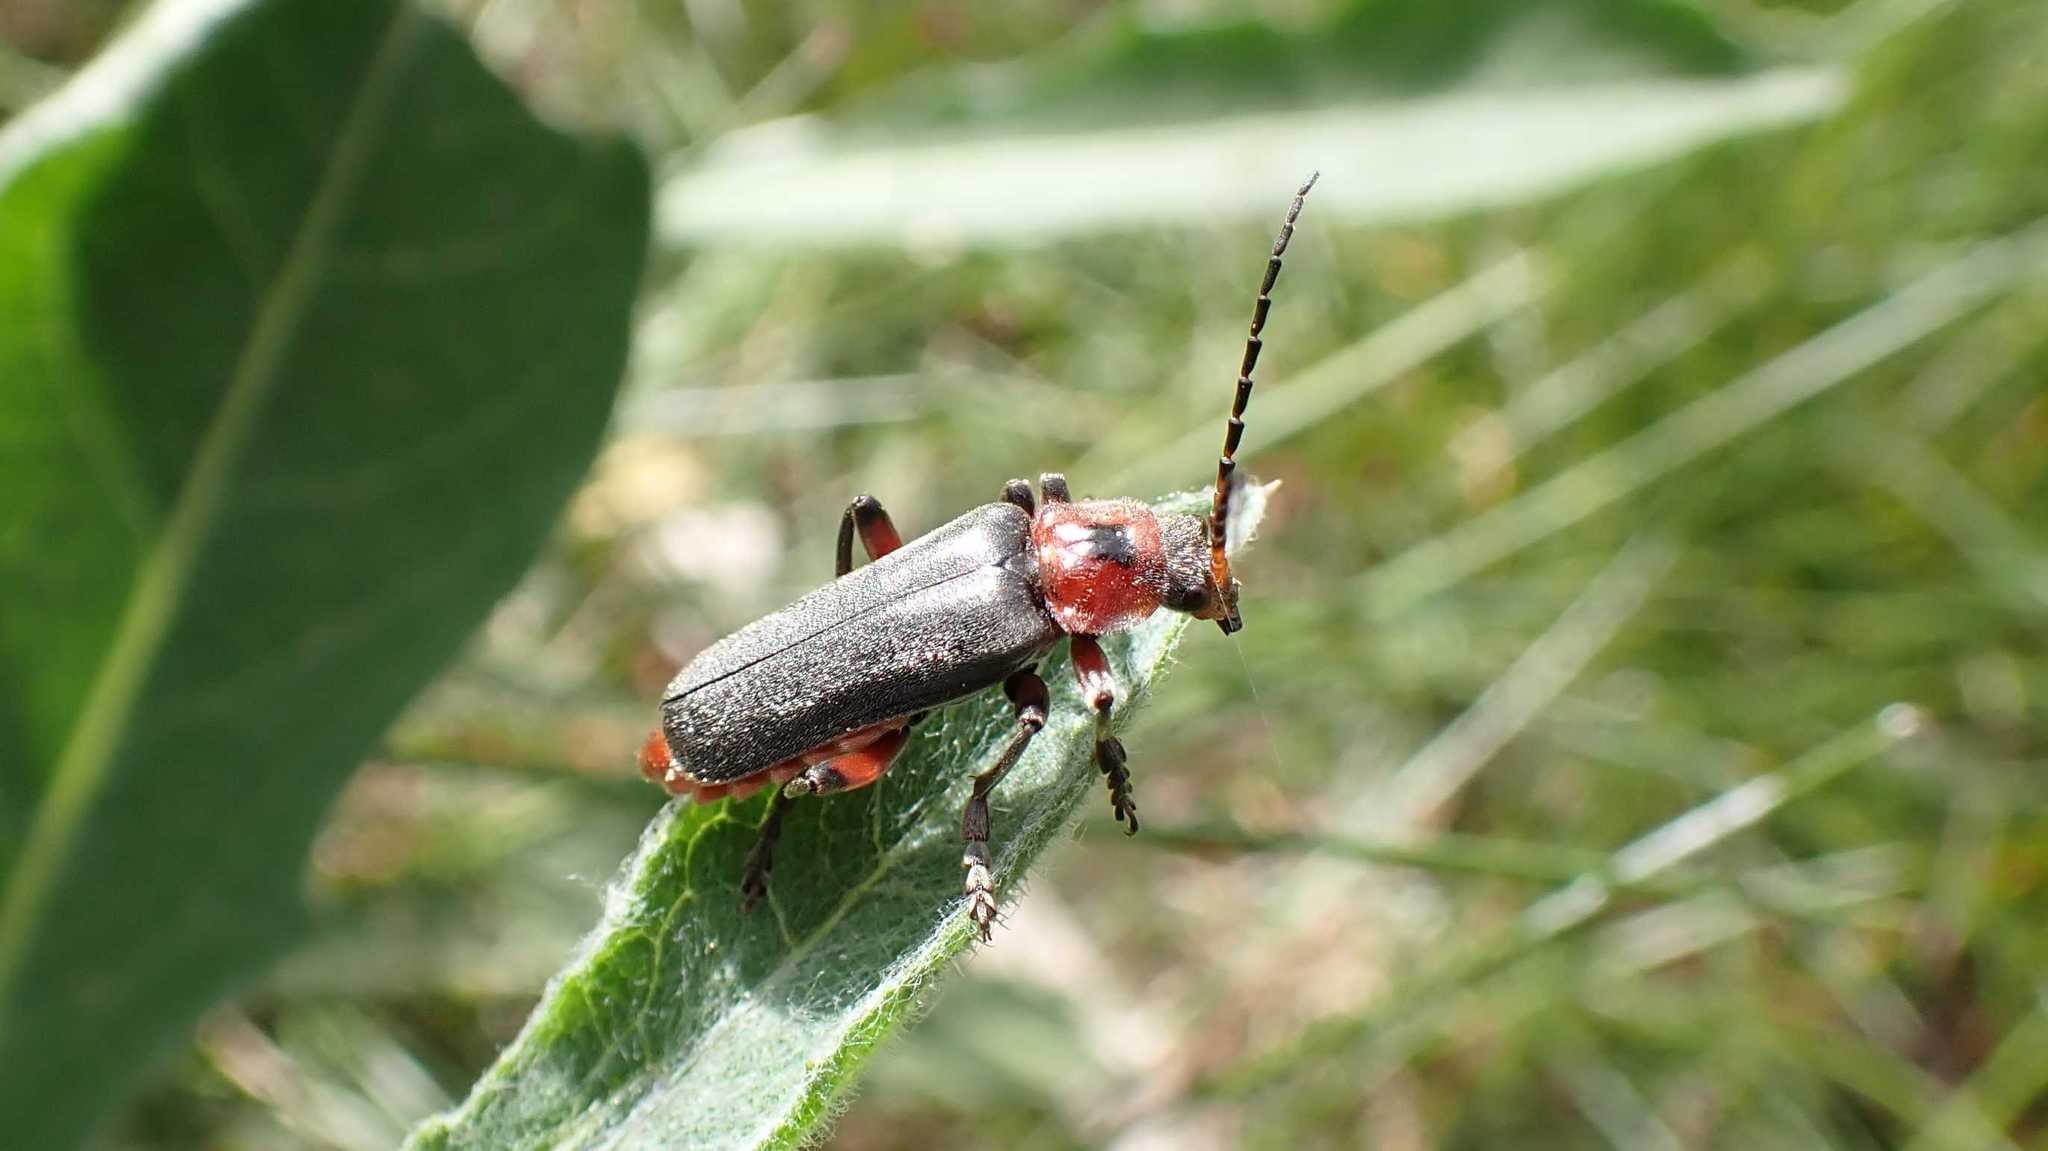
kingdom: Animalia
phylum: Arthropoda
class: Insecta
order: Coleoptera
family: Cantharidae
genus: Cantharis
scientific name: Cantharis rustica
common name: Soldier beetle
